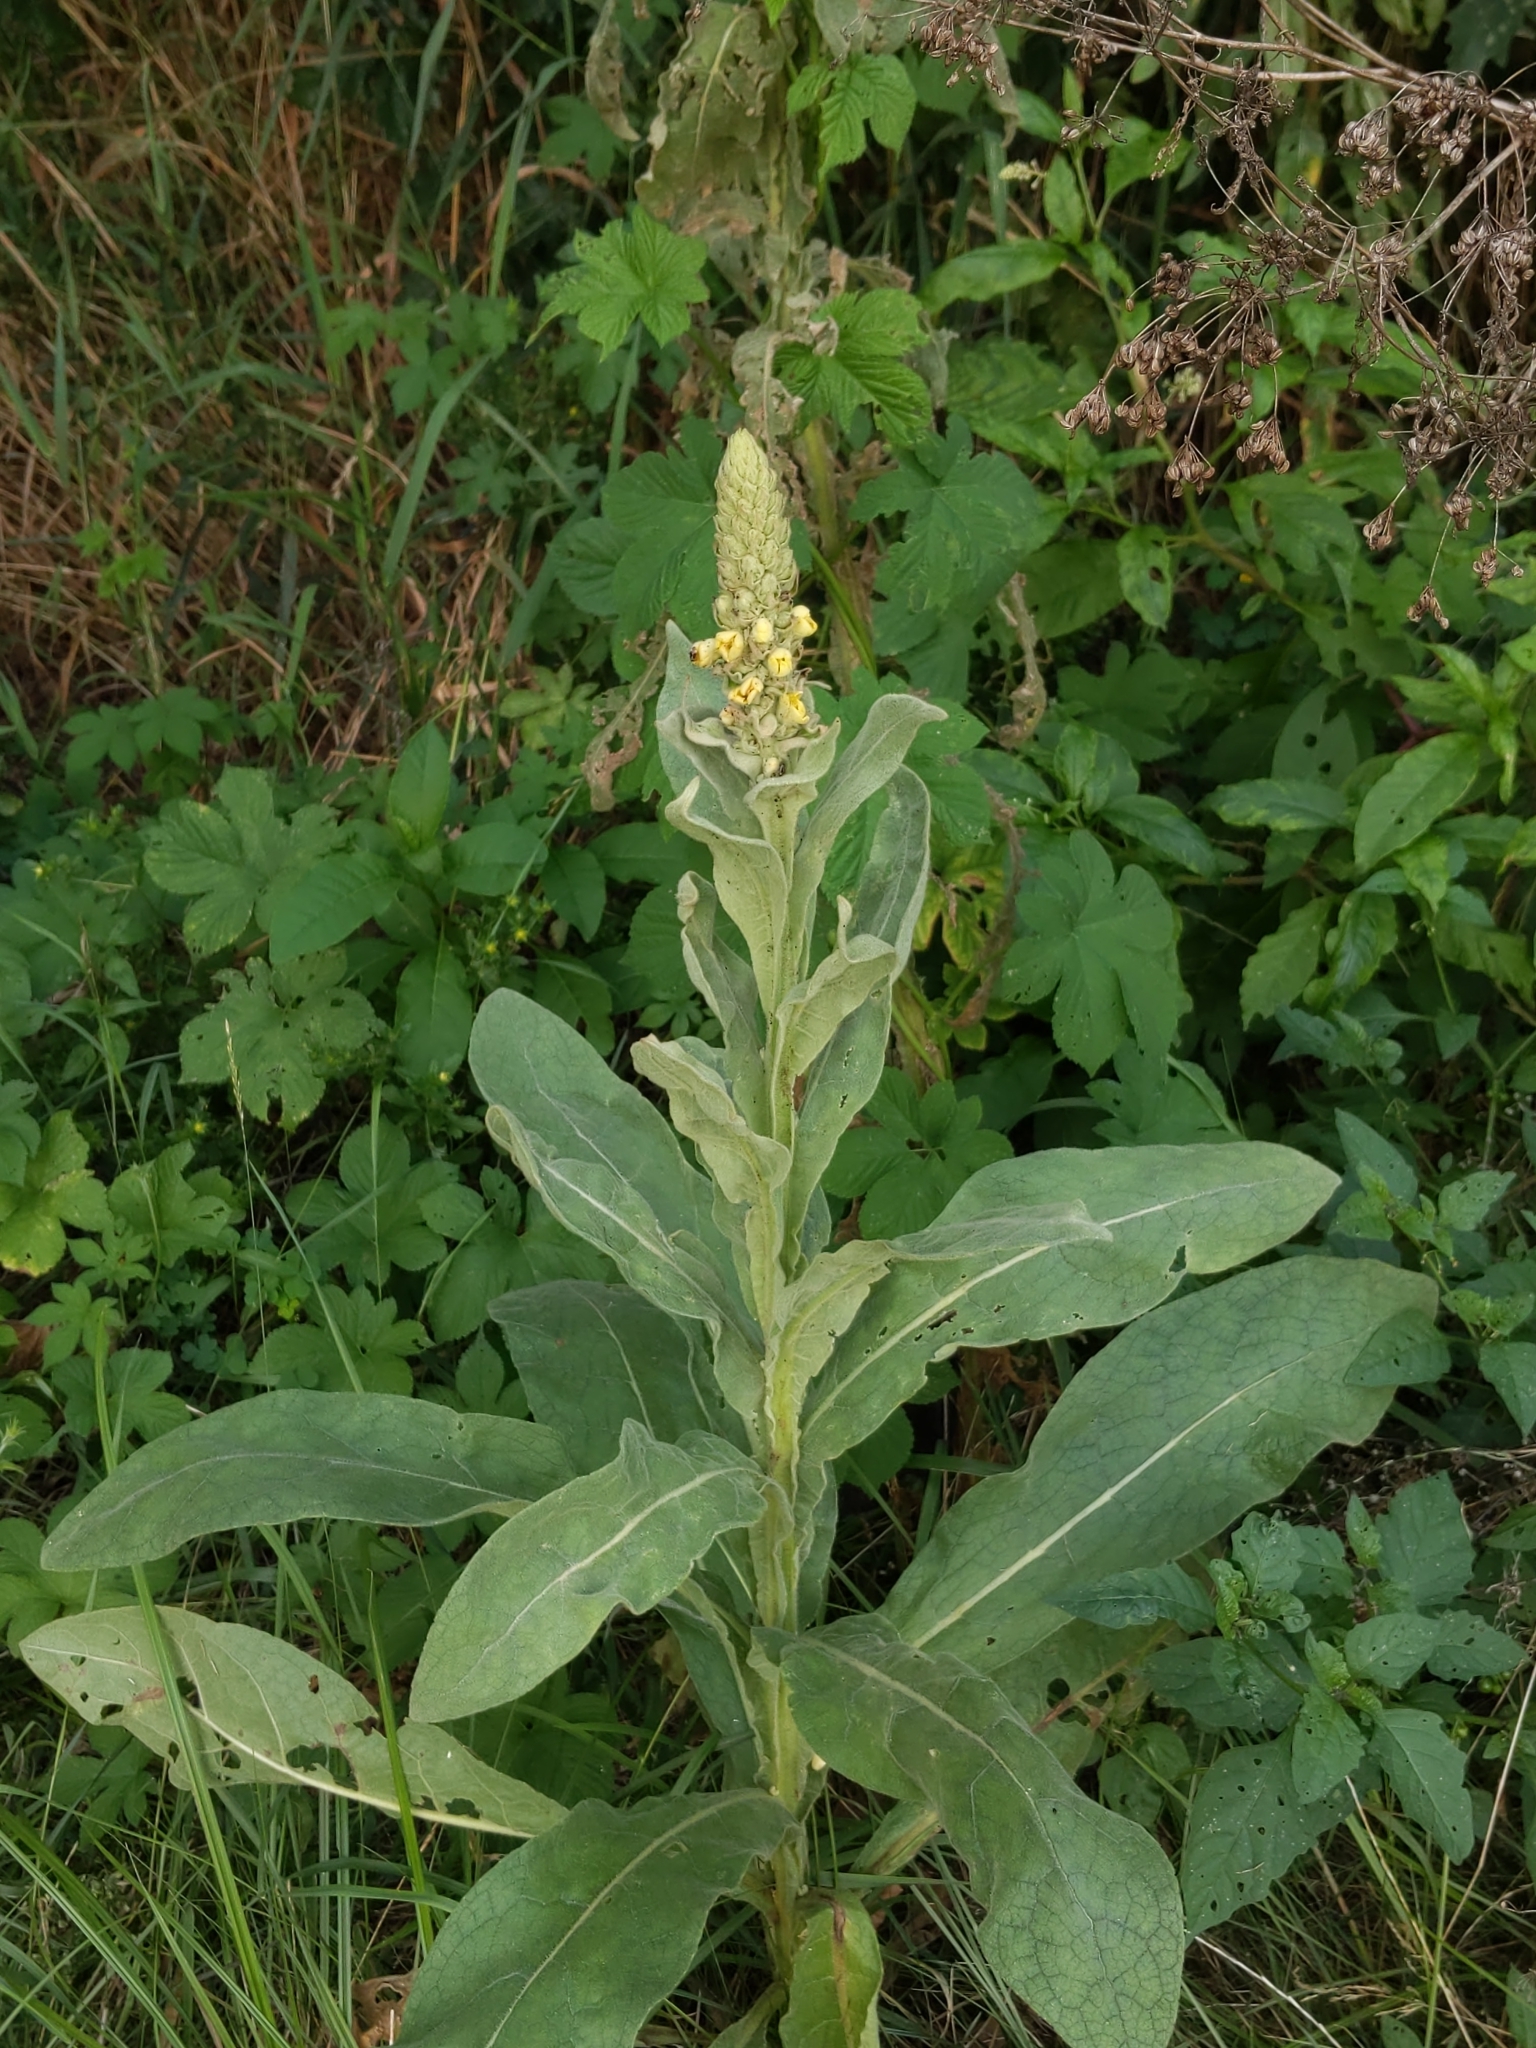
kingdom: Plantae
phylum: Tracheophyta
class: Magnoliopsida
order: Lamiales
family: Scrophulariaceae
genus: Verbascum
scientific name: Verbascum thapsus
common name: Common mullein
